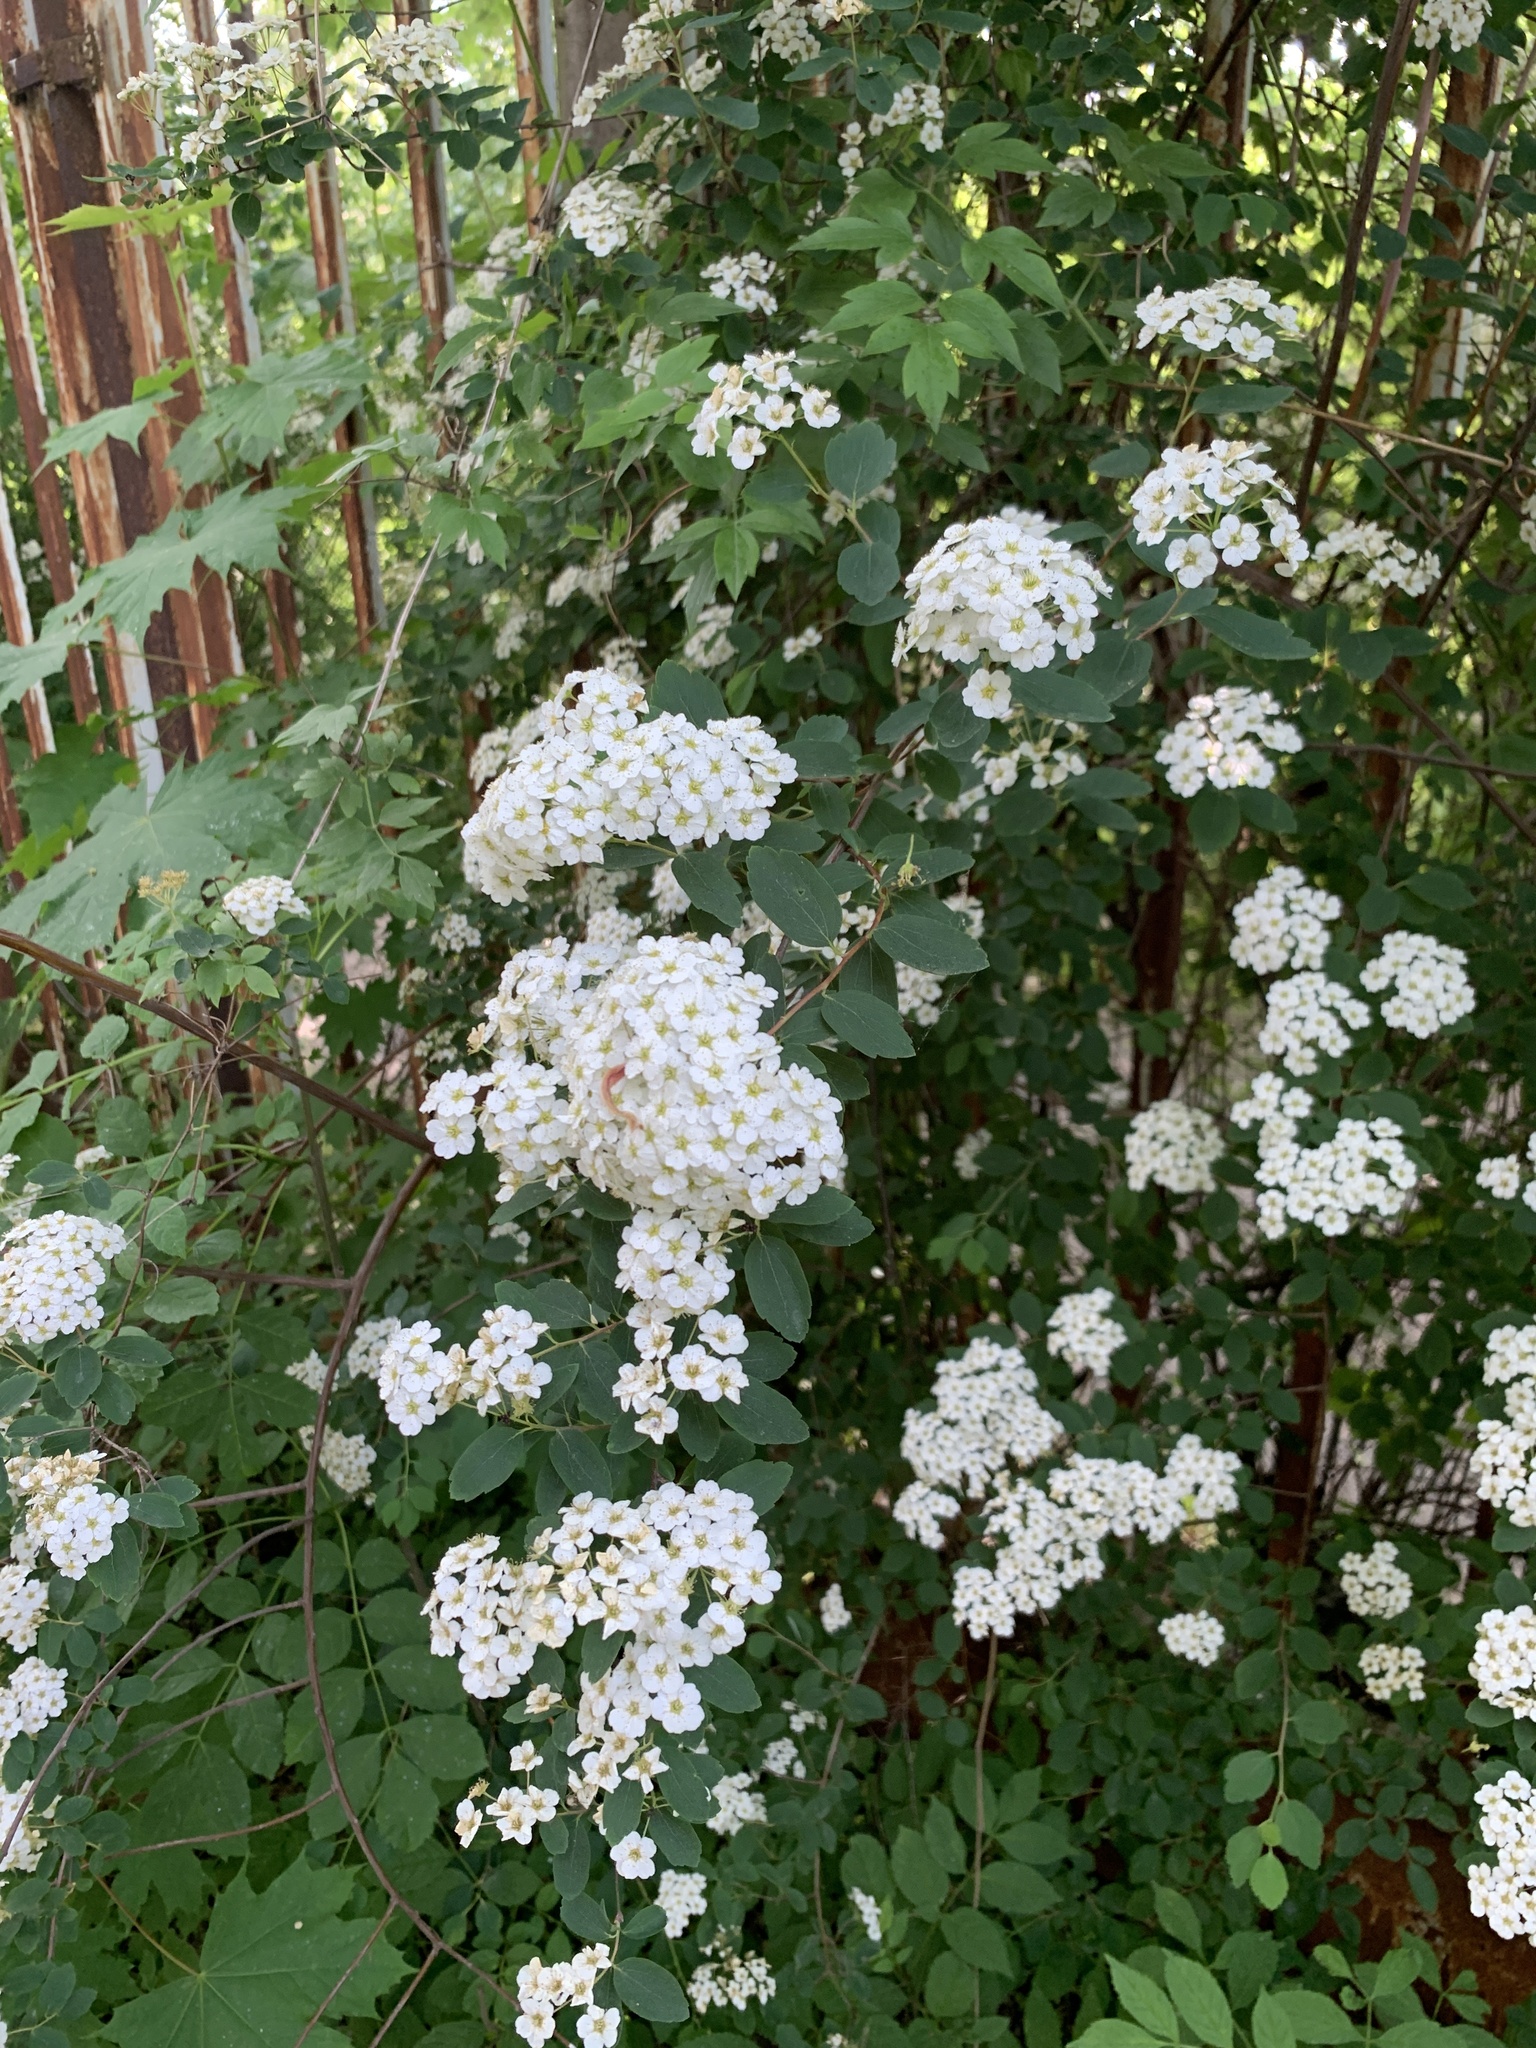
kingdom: Plantae
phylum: Tracheophyta
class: Magnoliopsida
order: Rosales
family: Rosaceae
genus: Spiraea
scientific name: Spiraea vanhouttei
